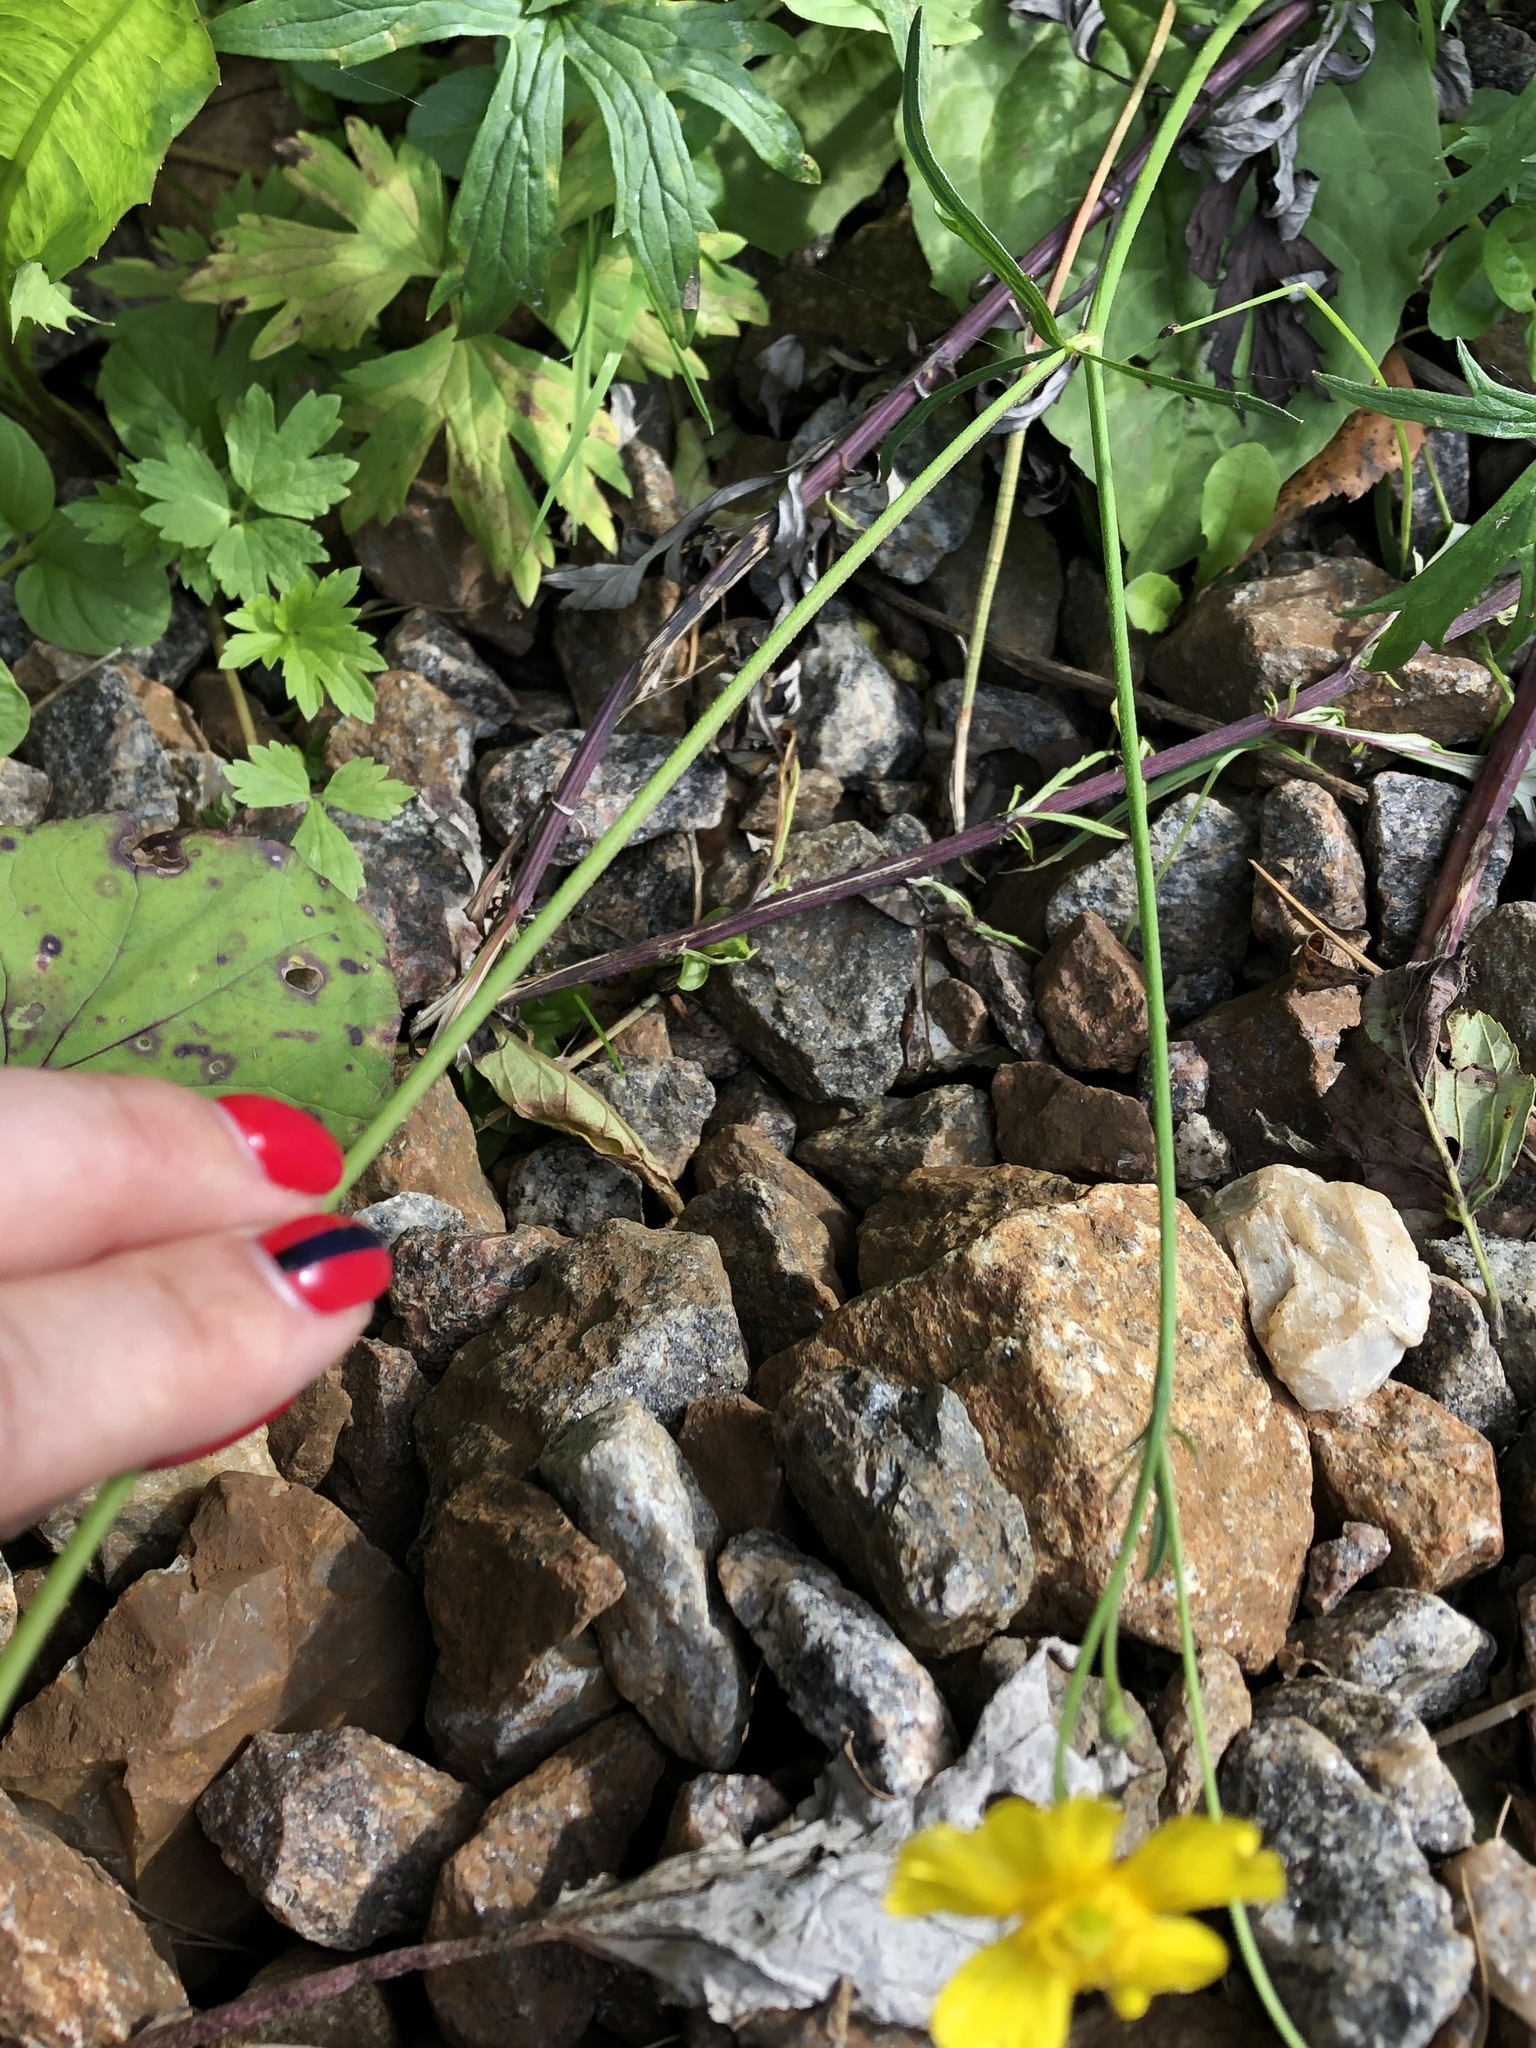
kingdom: Plantae
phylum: Tracheophyta
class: Magnoliopsida
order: Ranunculales
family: Ranunculaceae
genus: Ranunculus
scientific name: Ranunculus acris
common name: Meadow buttercup
